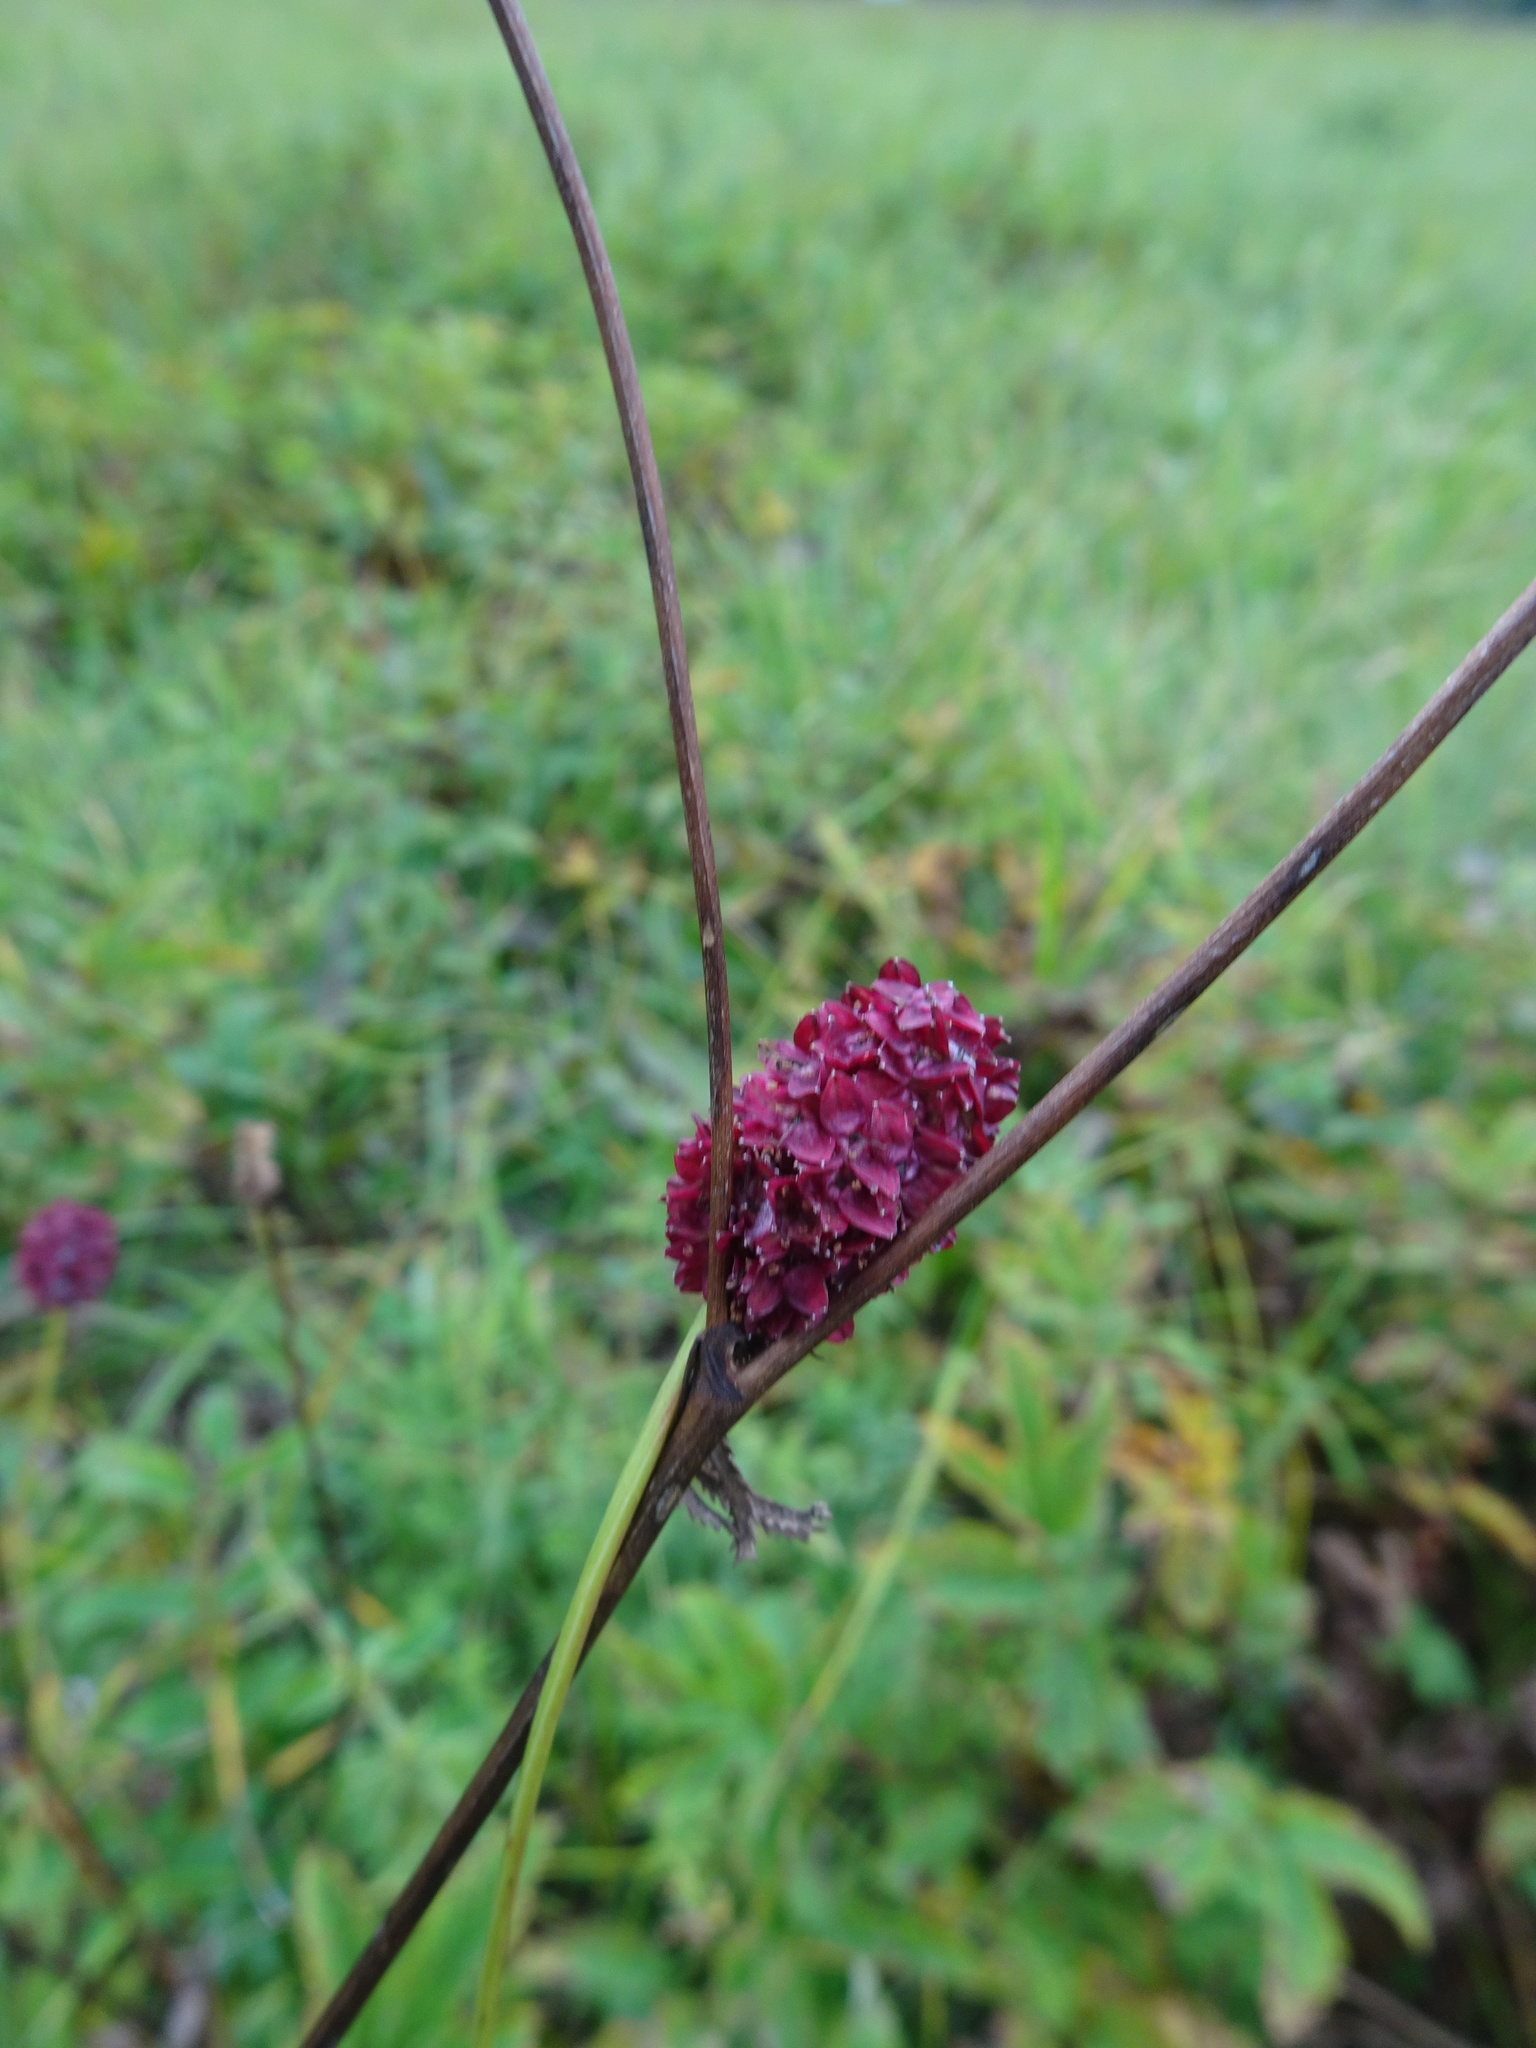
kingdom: Plantae
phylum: Tracheophyta
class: Magnoliopsida
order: Rosales
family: Rosaceae
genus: Sanguisorba
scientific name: Sanguisorba officinalis
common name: Great burnet
